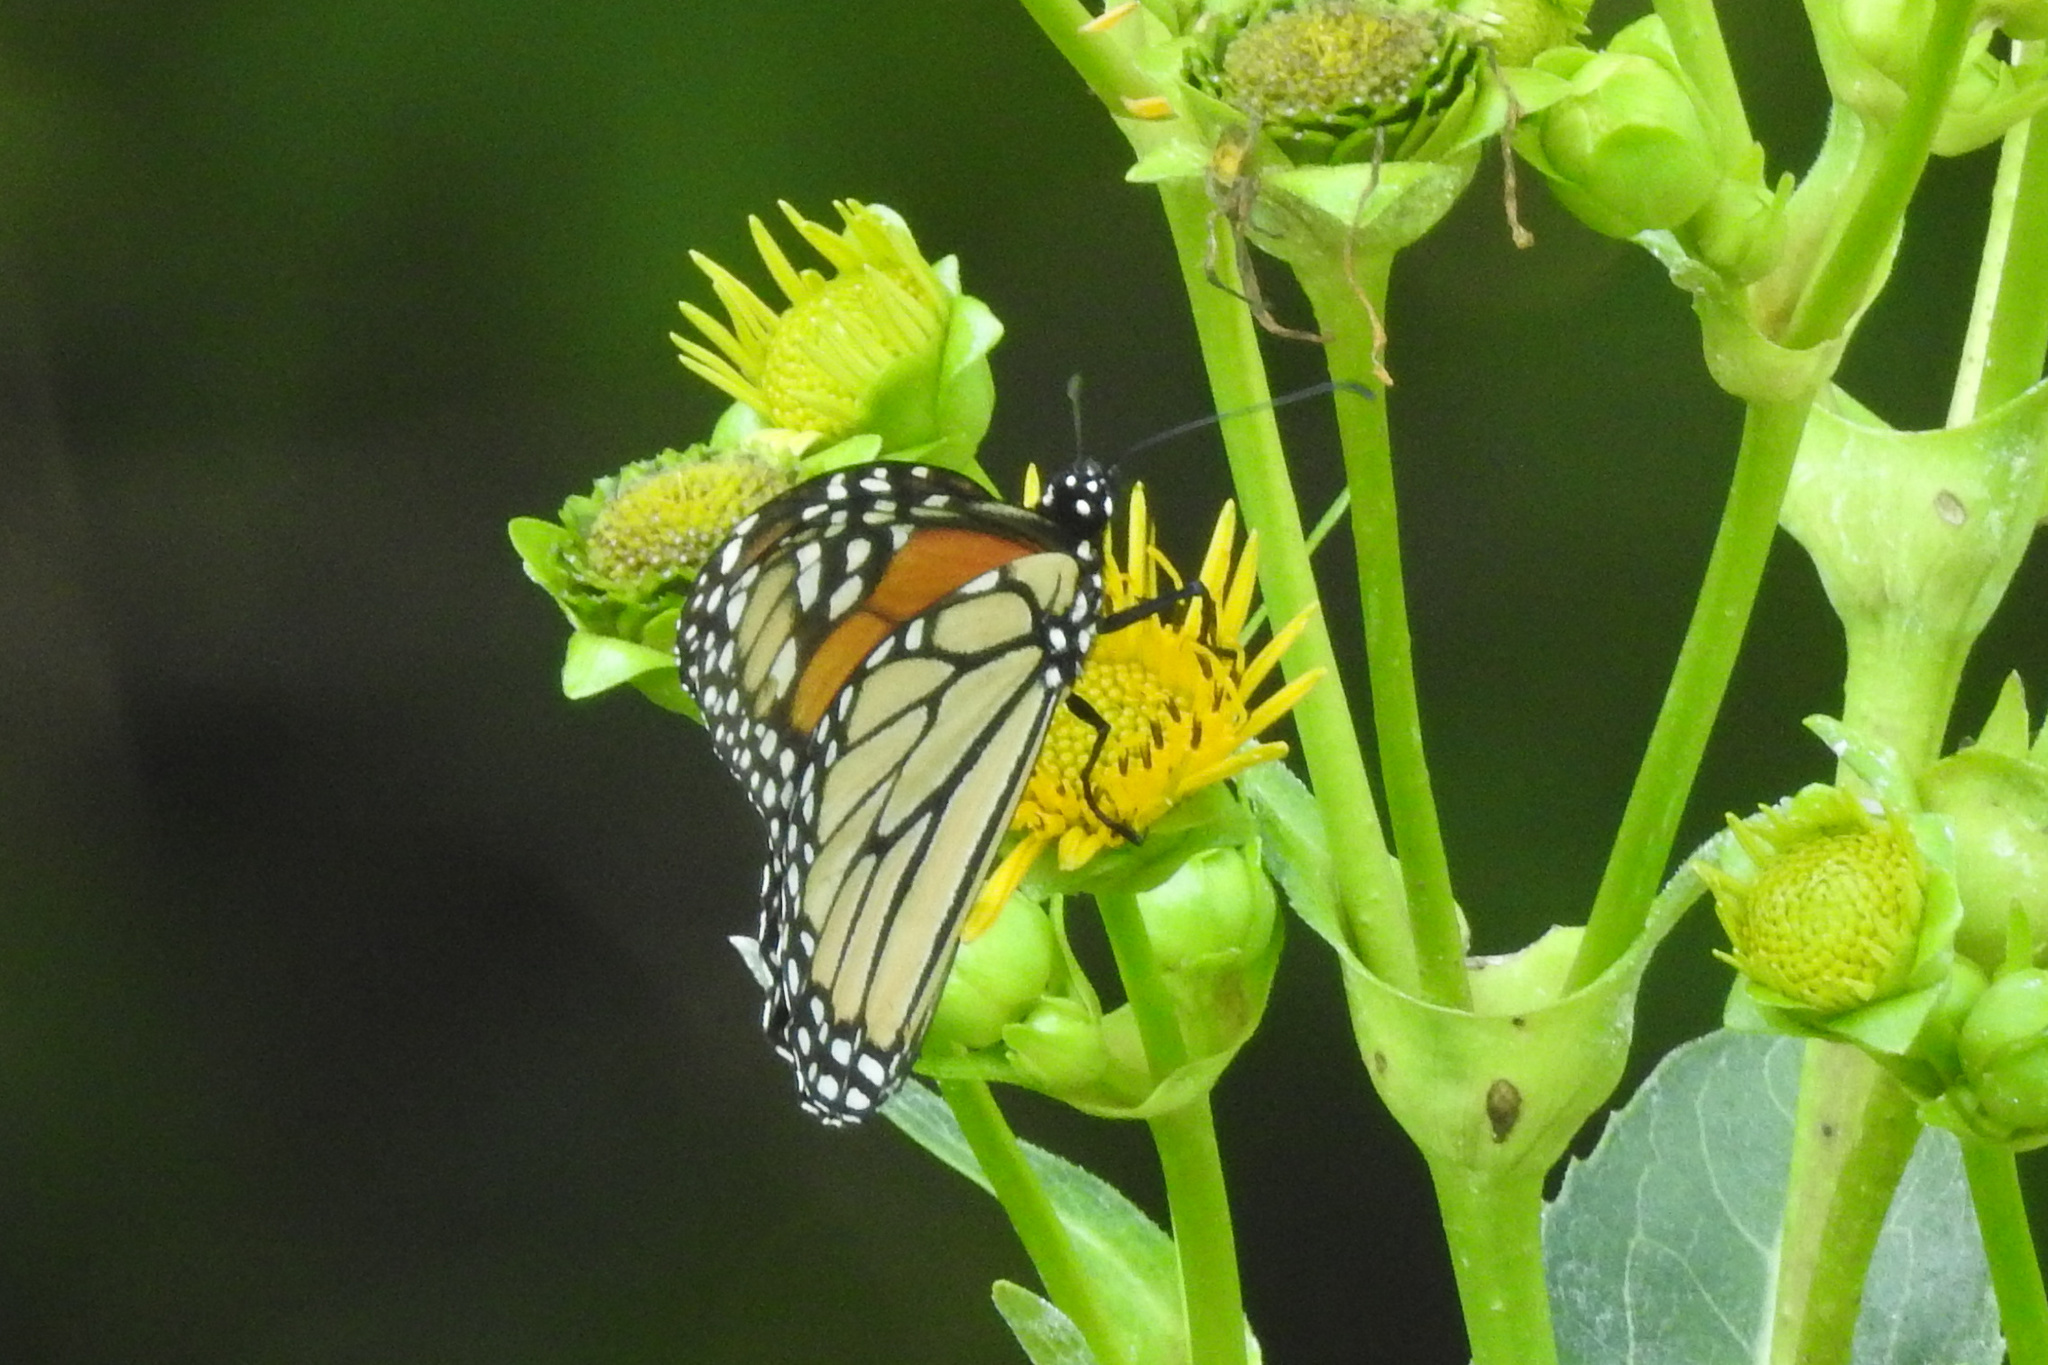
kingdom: Animalia
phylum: Arthropoda
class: Insecta
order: Lepidoptera
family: Nymphalidae
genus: Danaus
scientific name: Danaus plexippus
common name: Monarch
